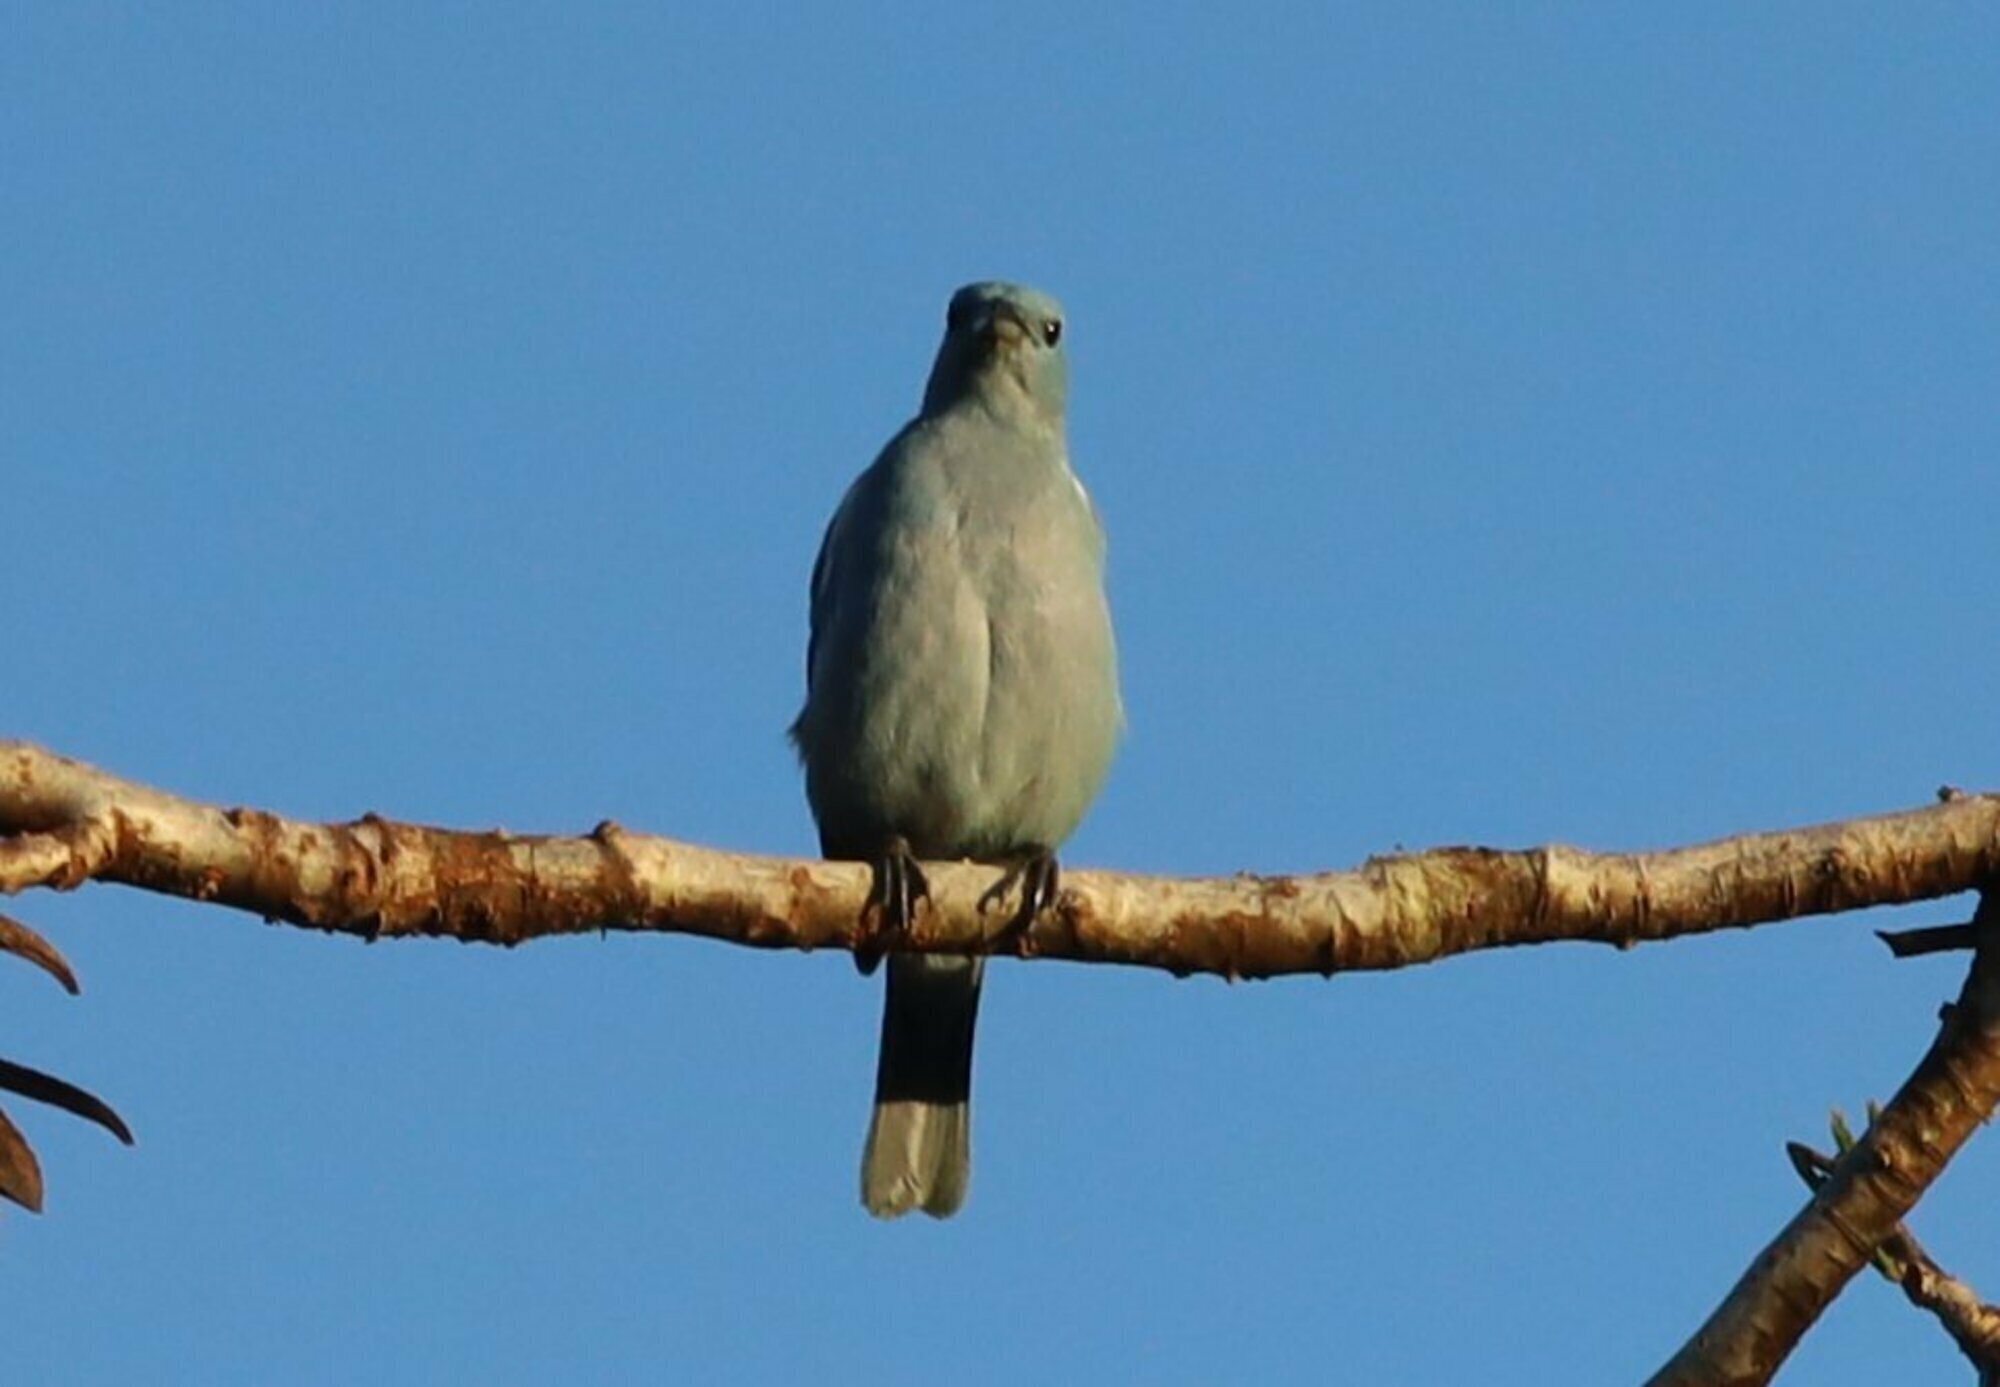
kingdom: Animalia
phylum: Chordata
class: Aves
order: Passeriformes
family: Thraupidae
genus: Thraupis
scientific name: Thraupis episcopus
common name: Blue-grey tanager
